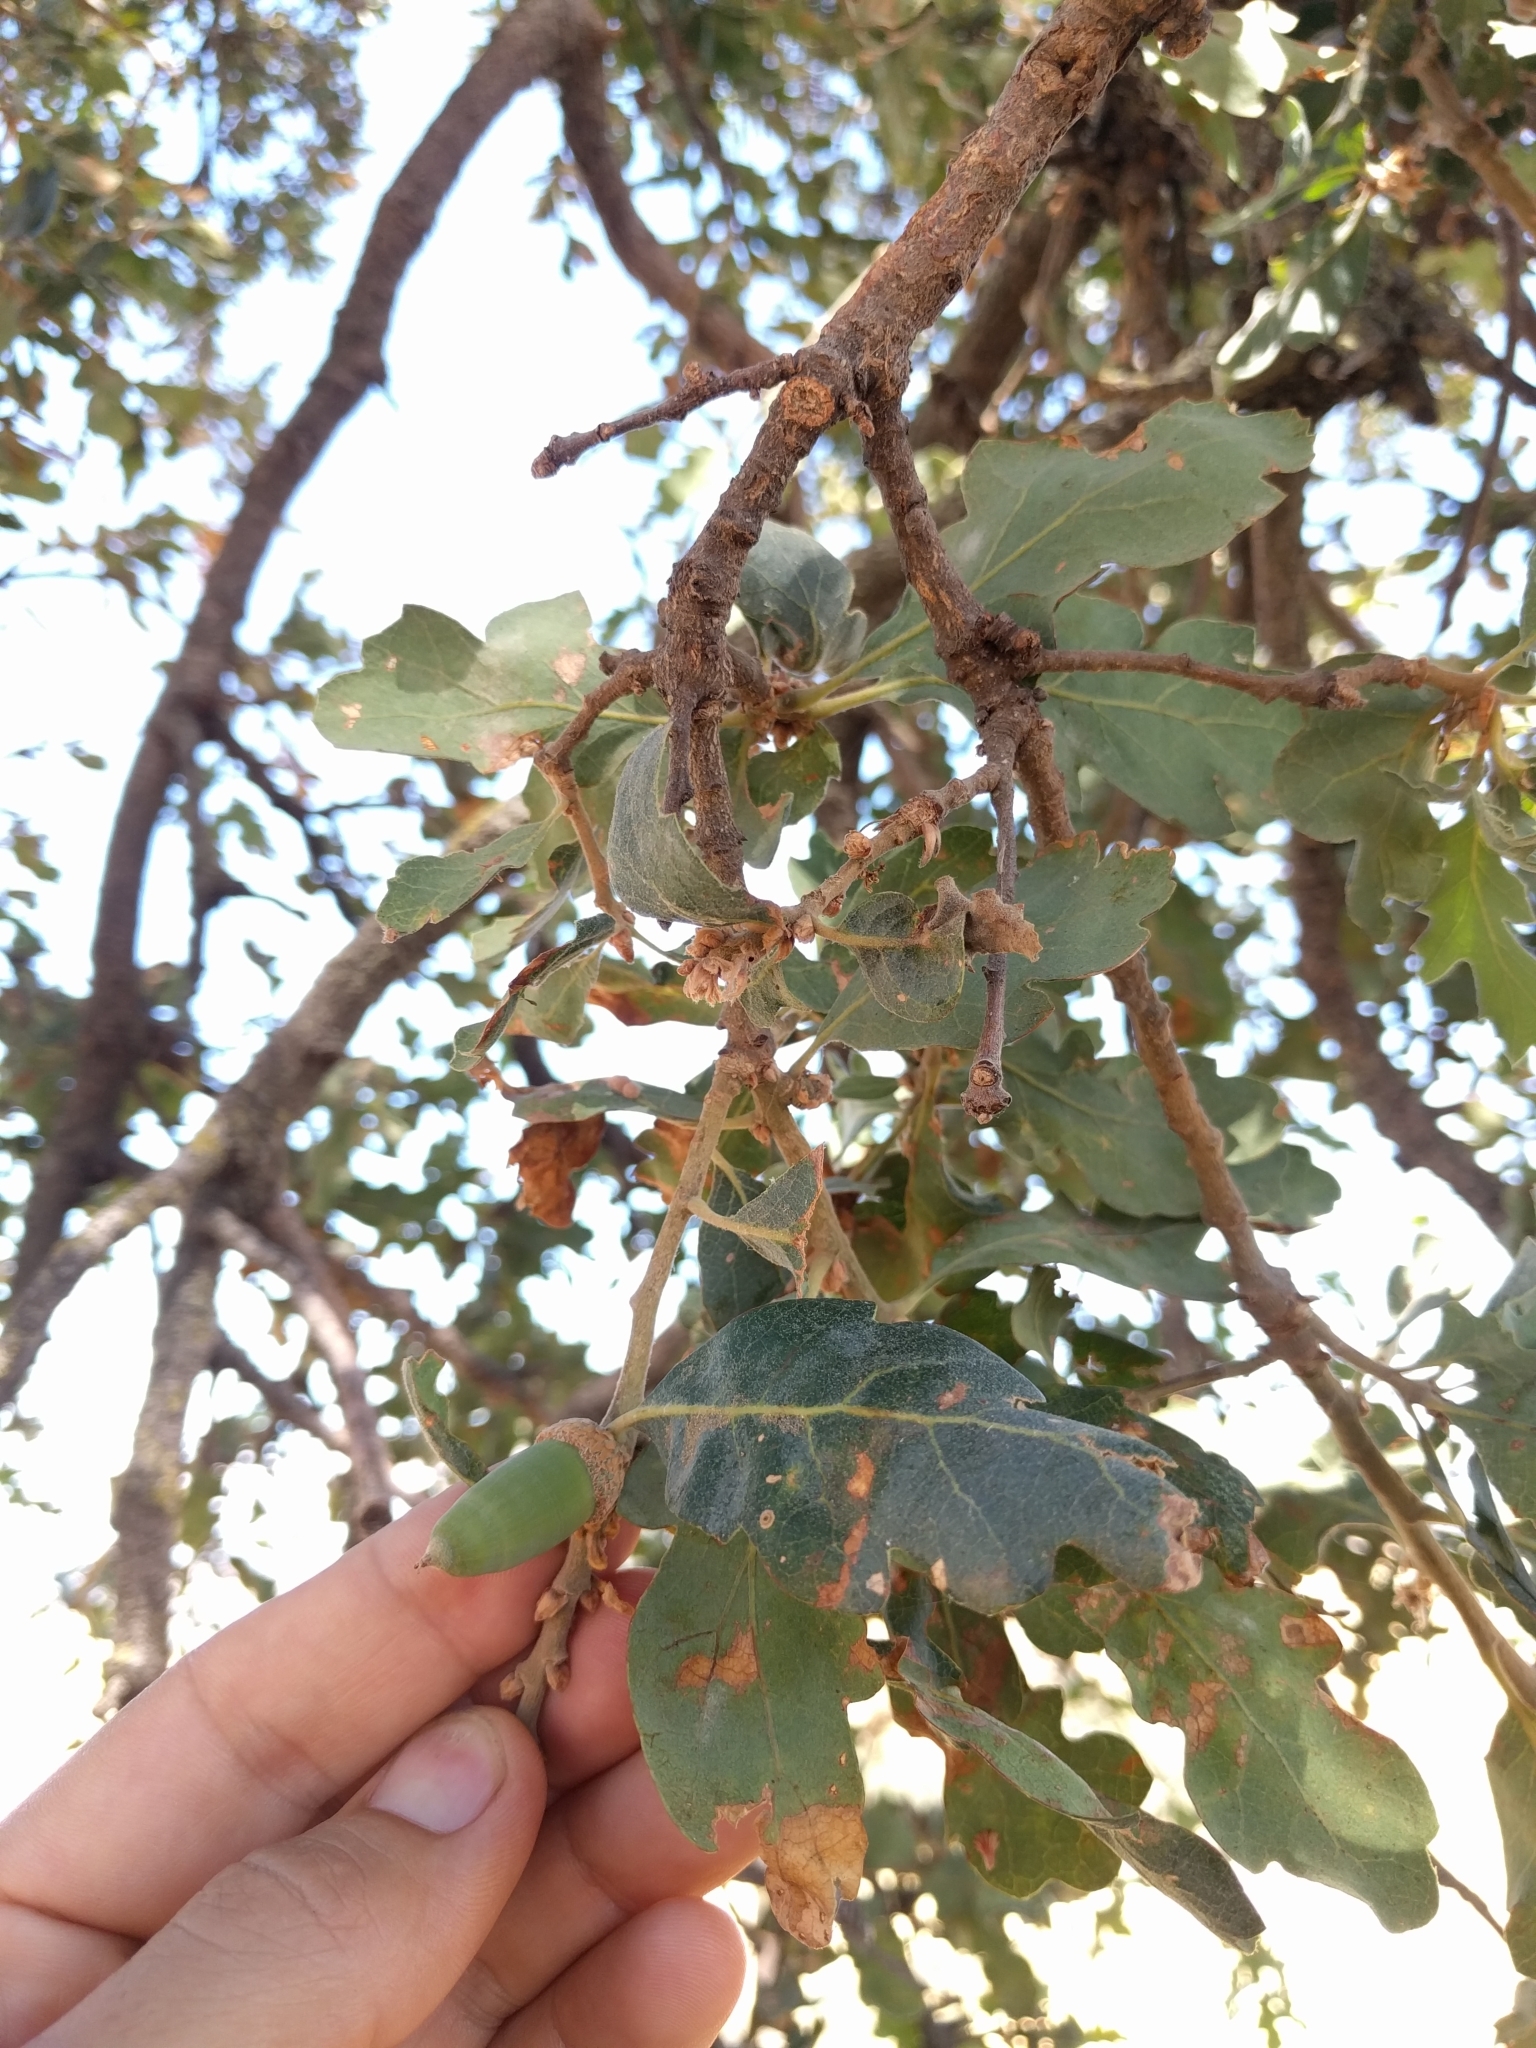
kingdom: Plantae
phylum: Tracheophyta
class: Magnoliopsida
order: Fagales
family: Fagaceae
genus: Quercus
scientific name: Quercus douglasii
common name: Blue oak
